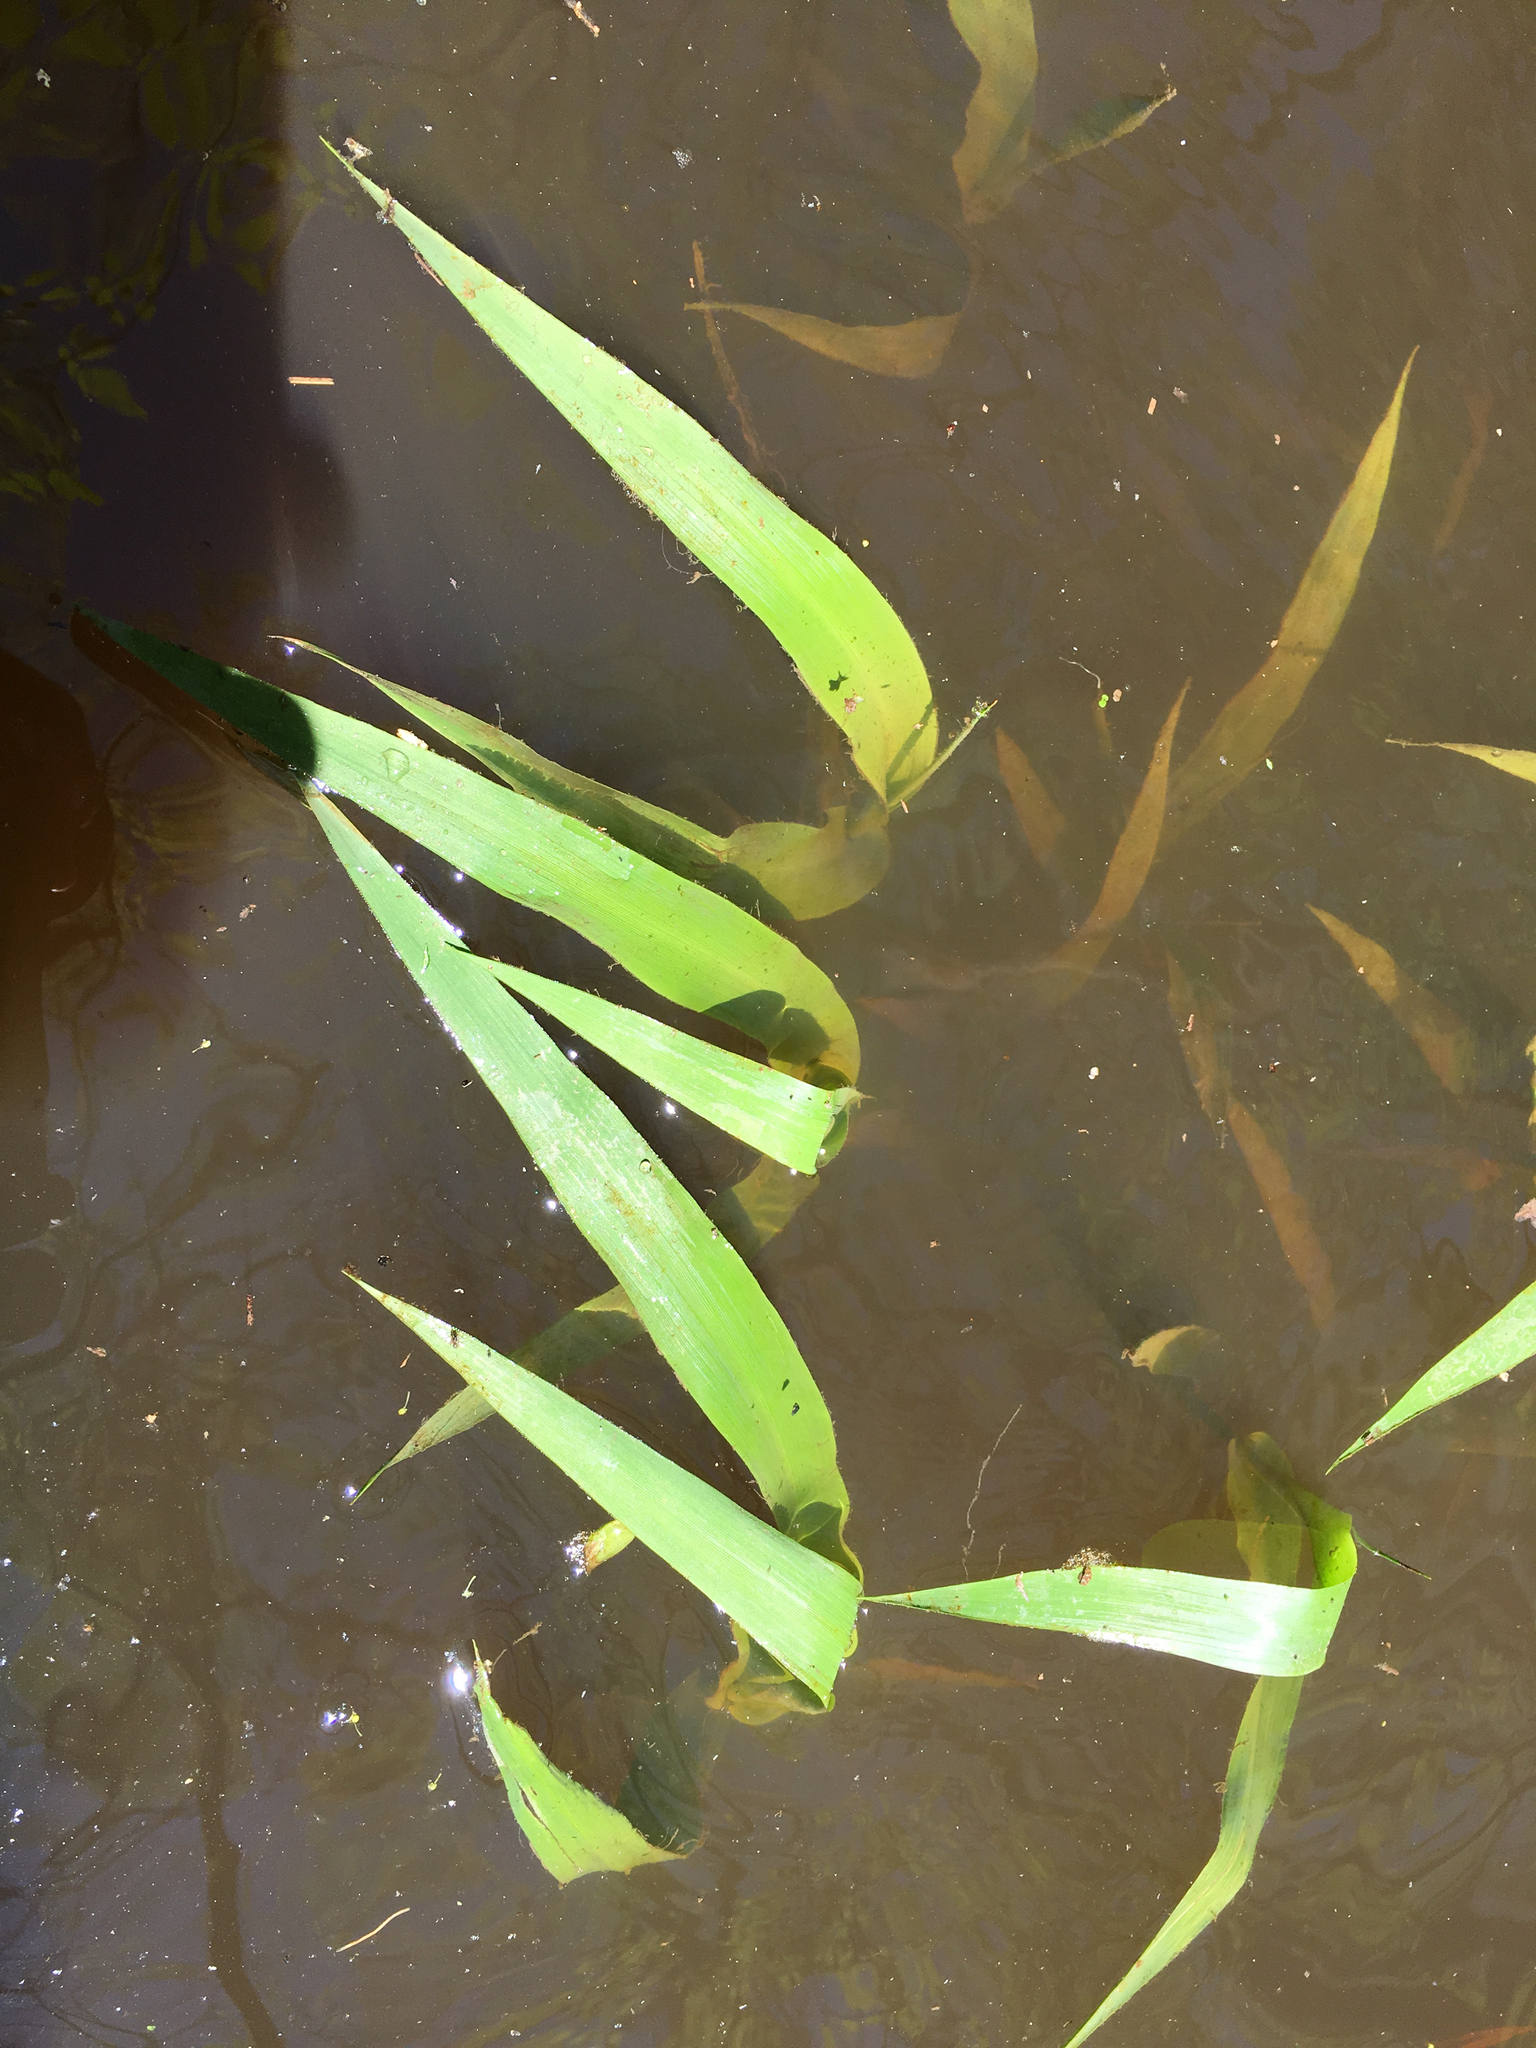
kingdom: Plantae
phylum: Tracheophyta
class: Liliopsida
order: Poales
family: Poaceae
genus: Panicum
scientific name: Panicum gymnocarpon
